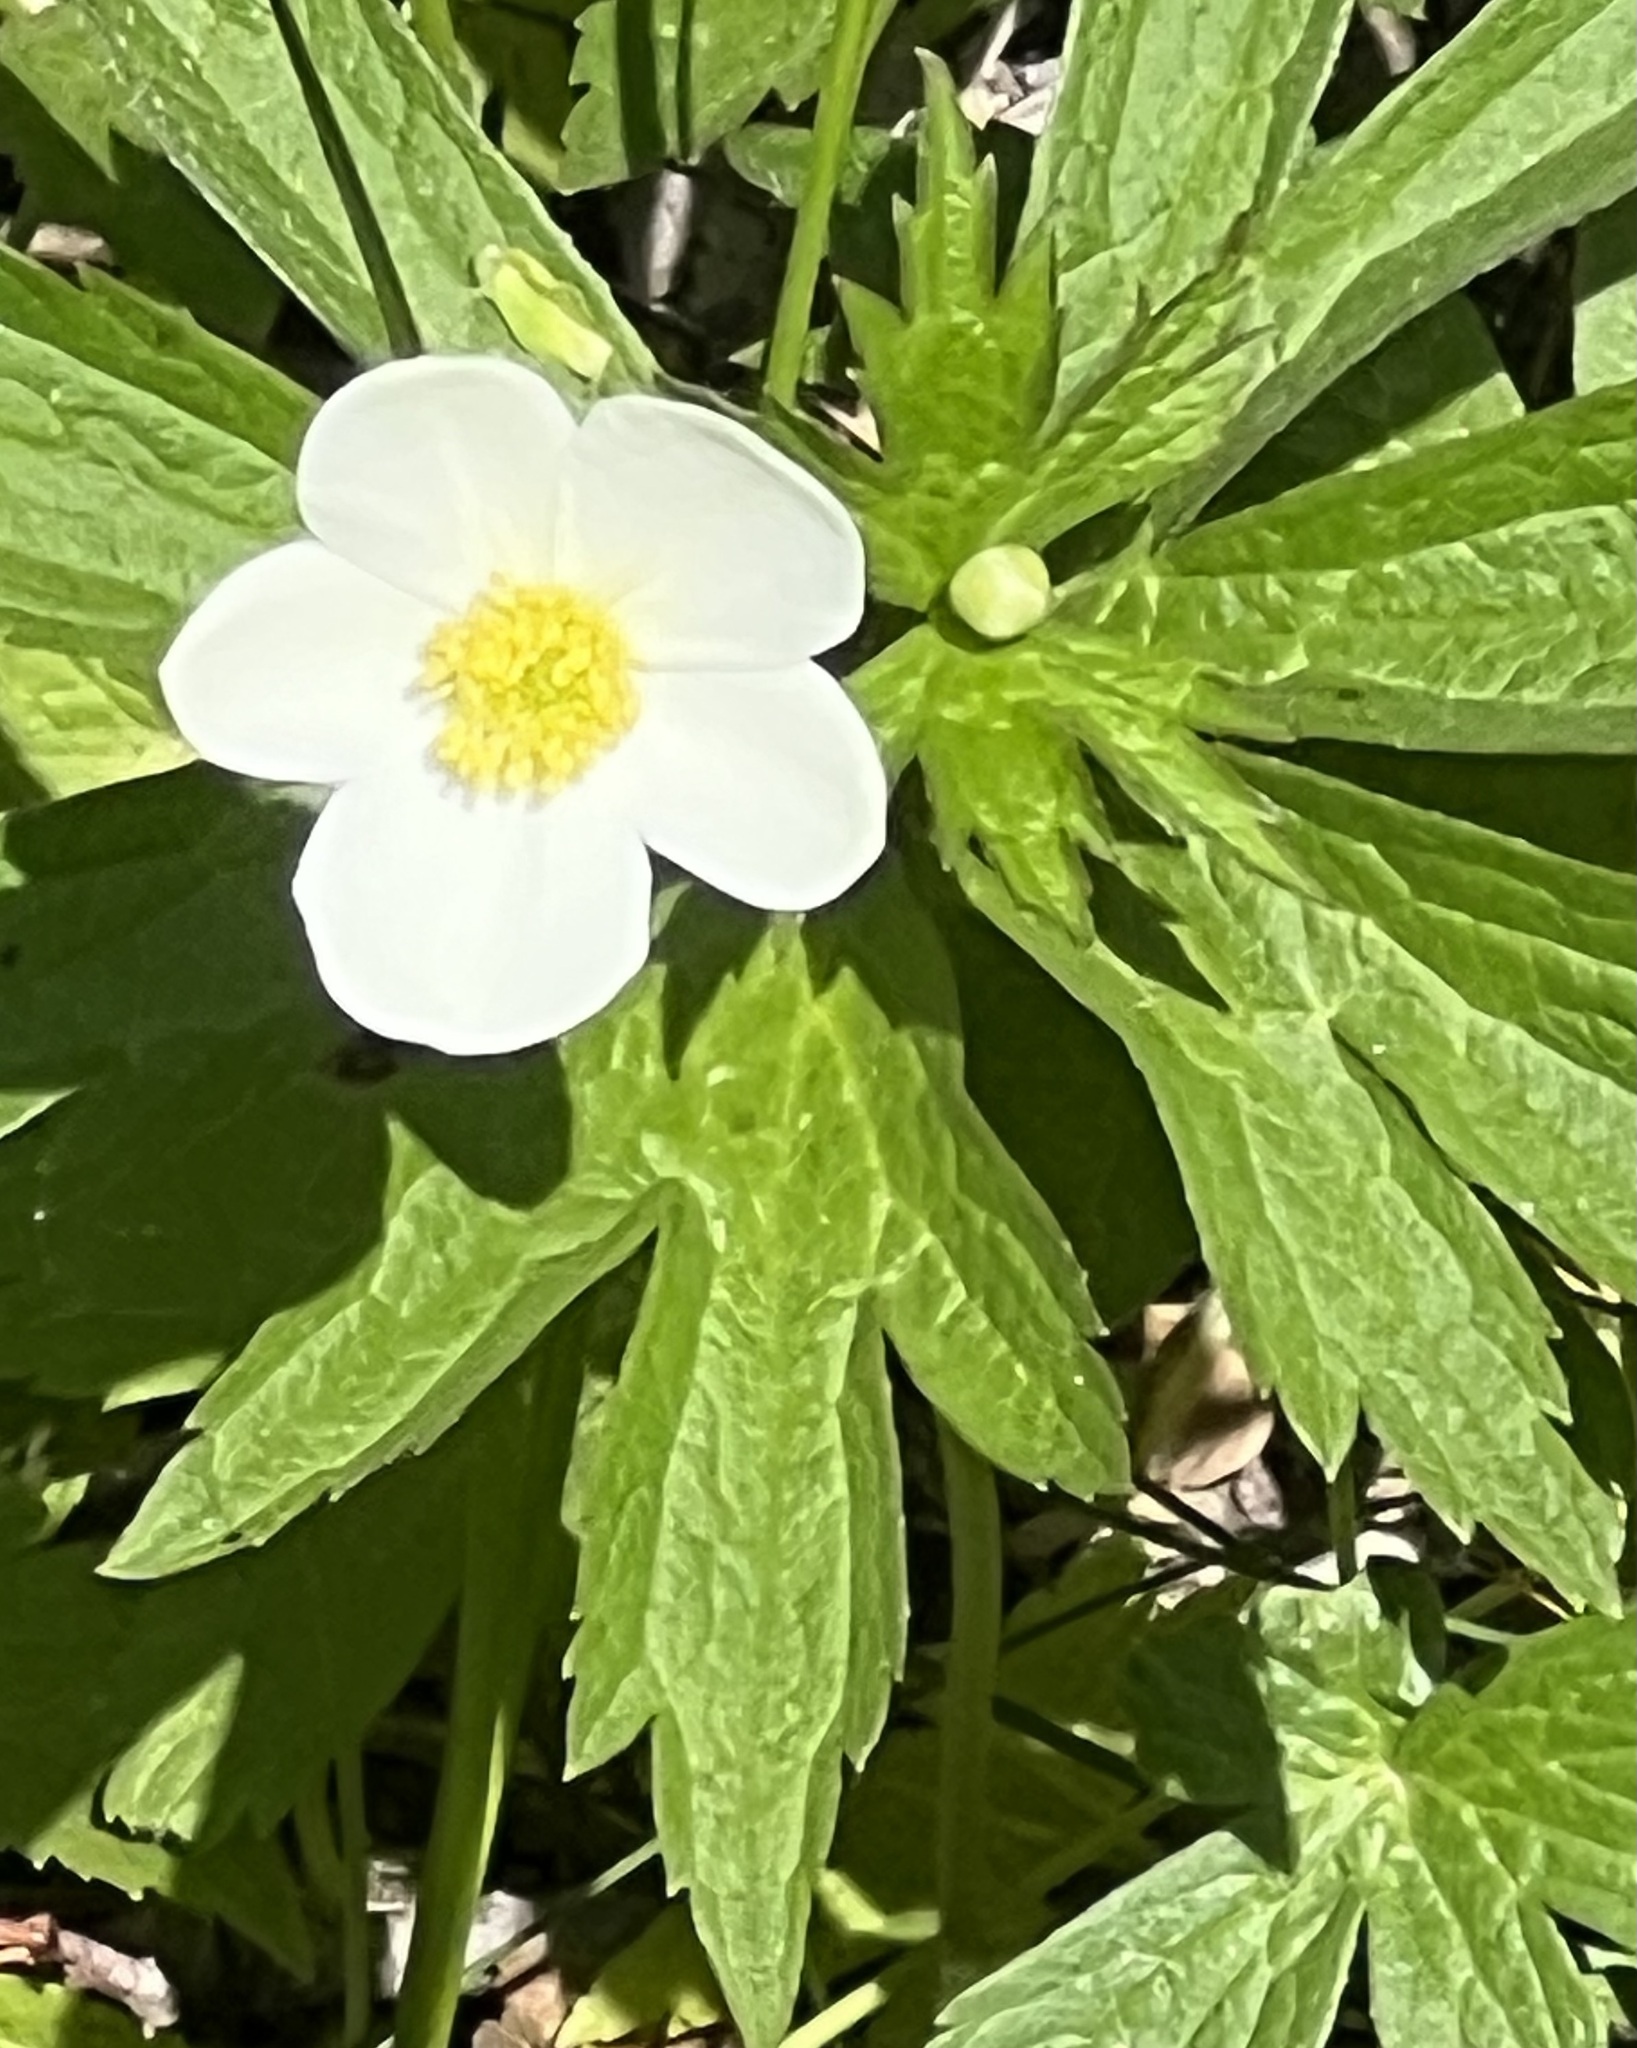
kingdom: Plantae
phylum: Tracheophyta
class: Magnoliopsida
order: Ranunculales
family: Ranunculaceae
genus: Anemonastrum
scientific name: Anemonastrum canadense
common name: Canada anemone
